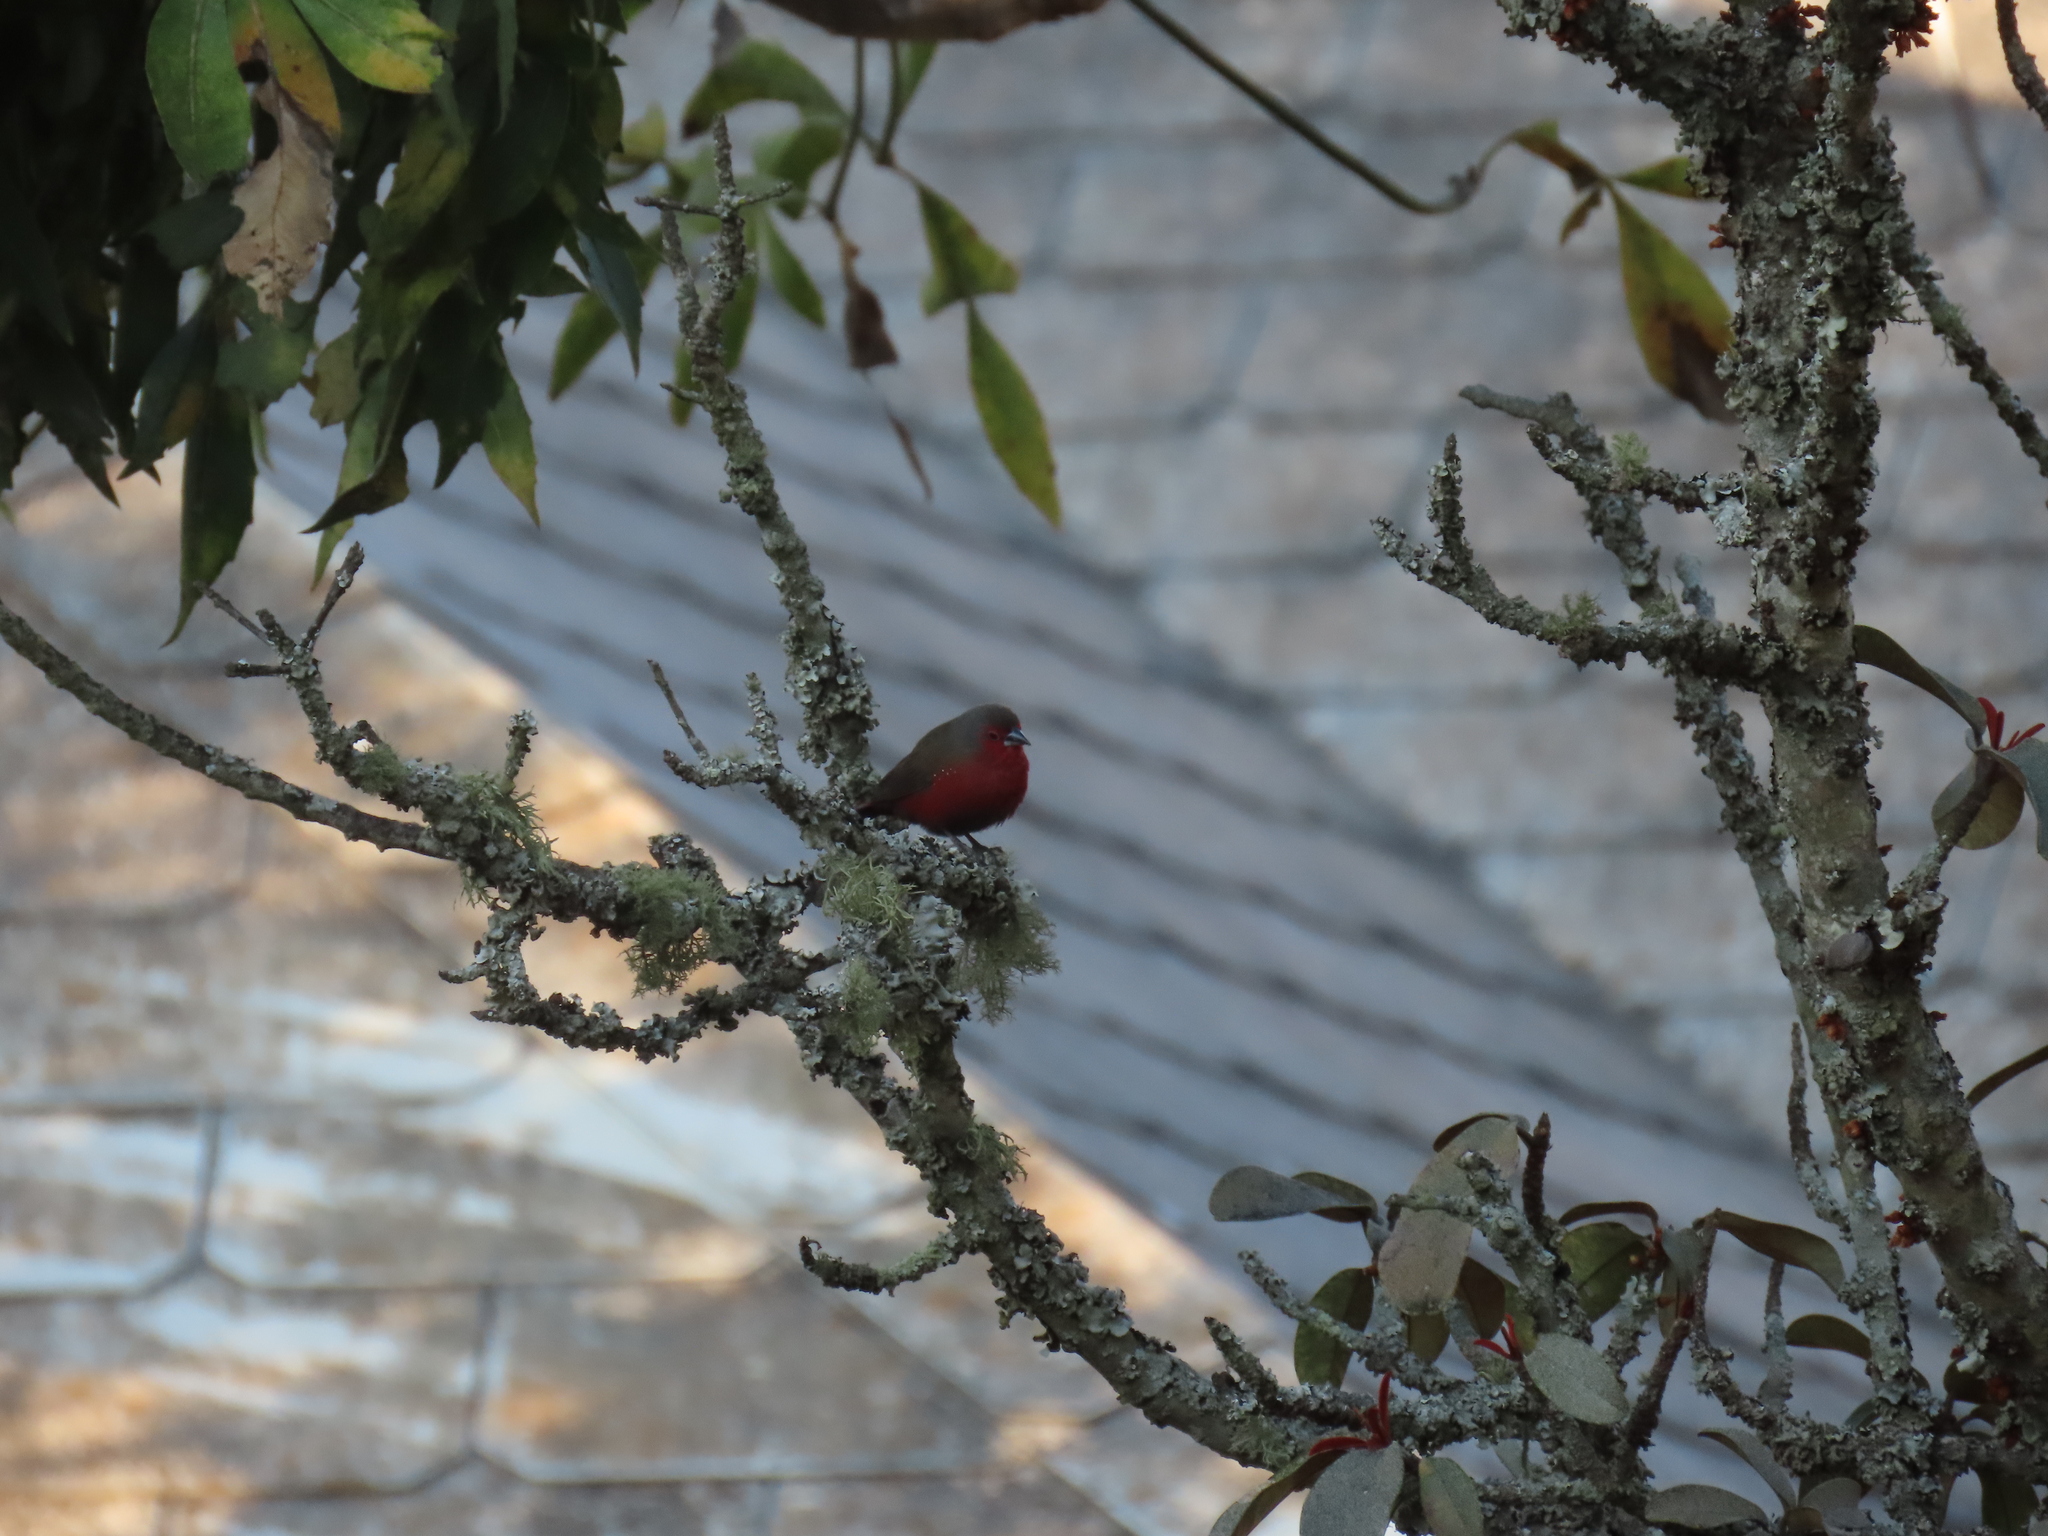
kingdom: Animalia
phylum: Chordata
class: Aves
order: Passeriformes
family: Estrildidae
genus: Lagonosticta
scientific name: Lagonosticta rubricata
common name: African firefinch
